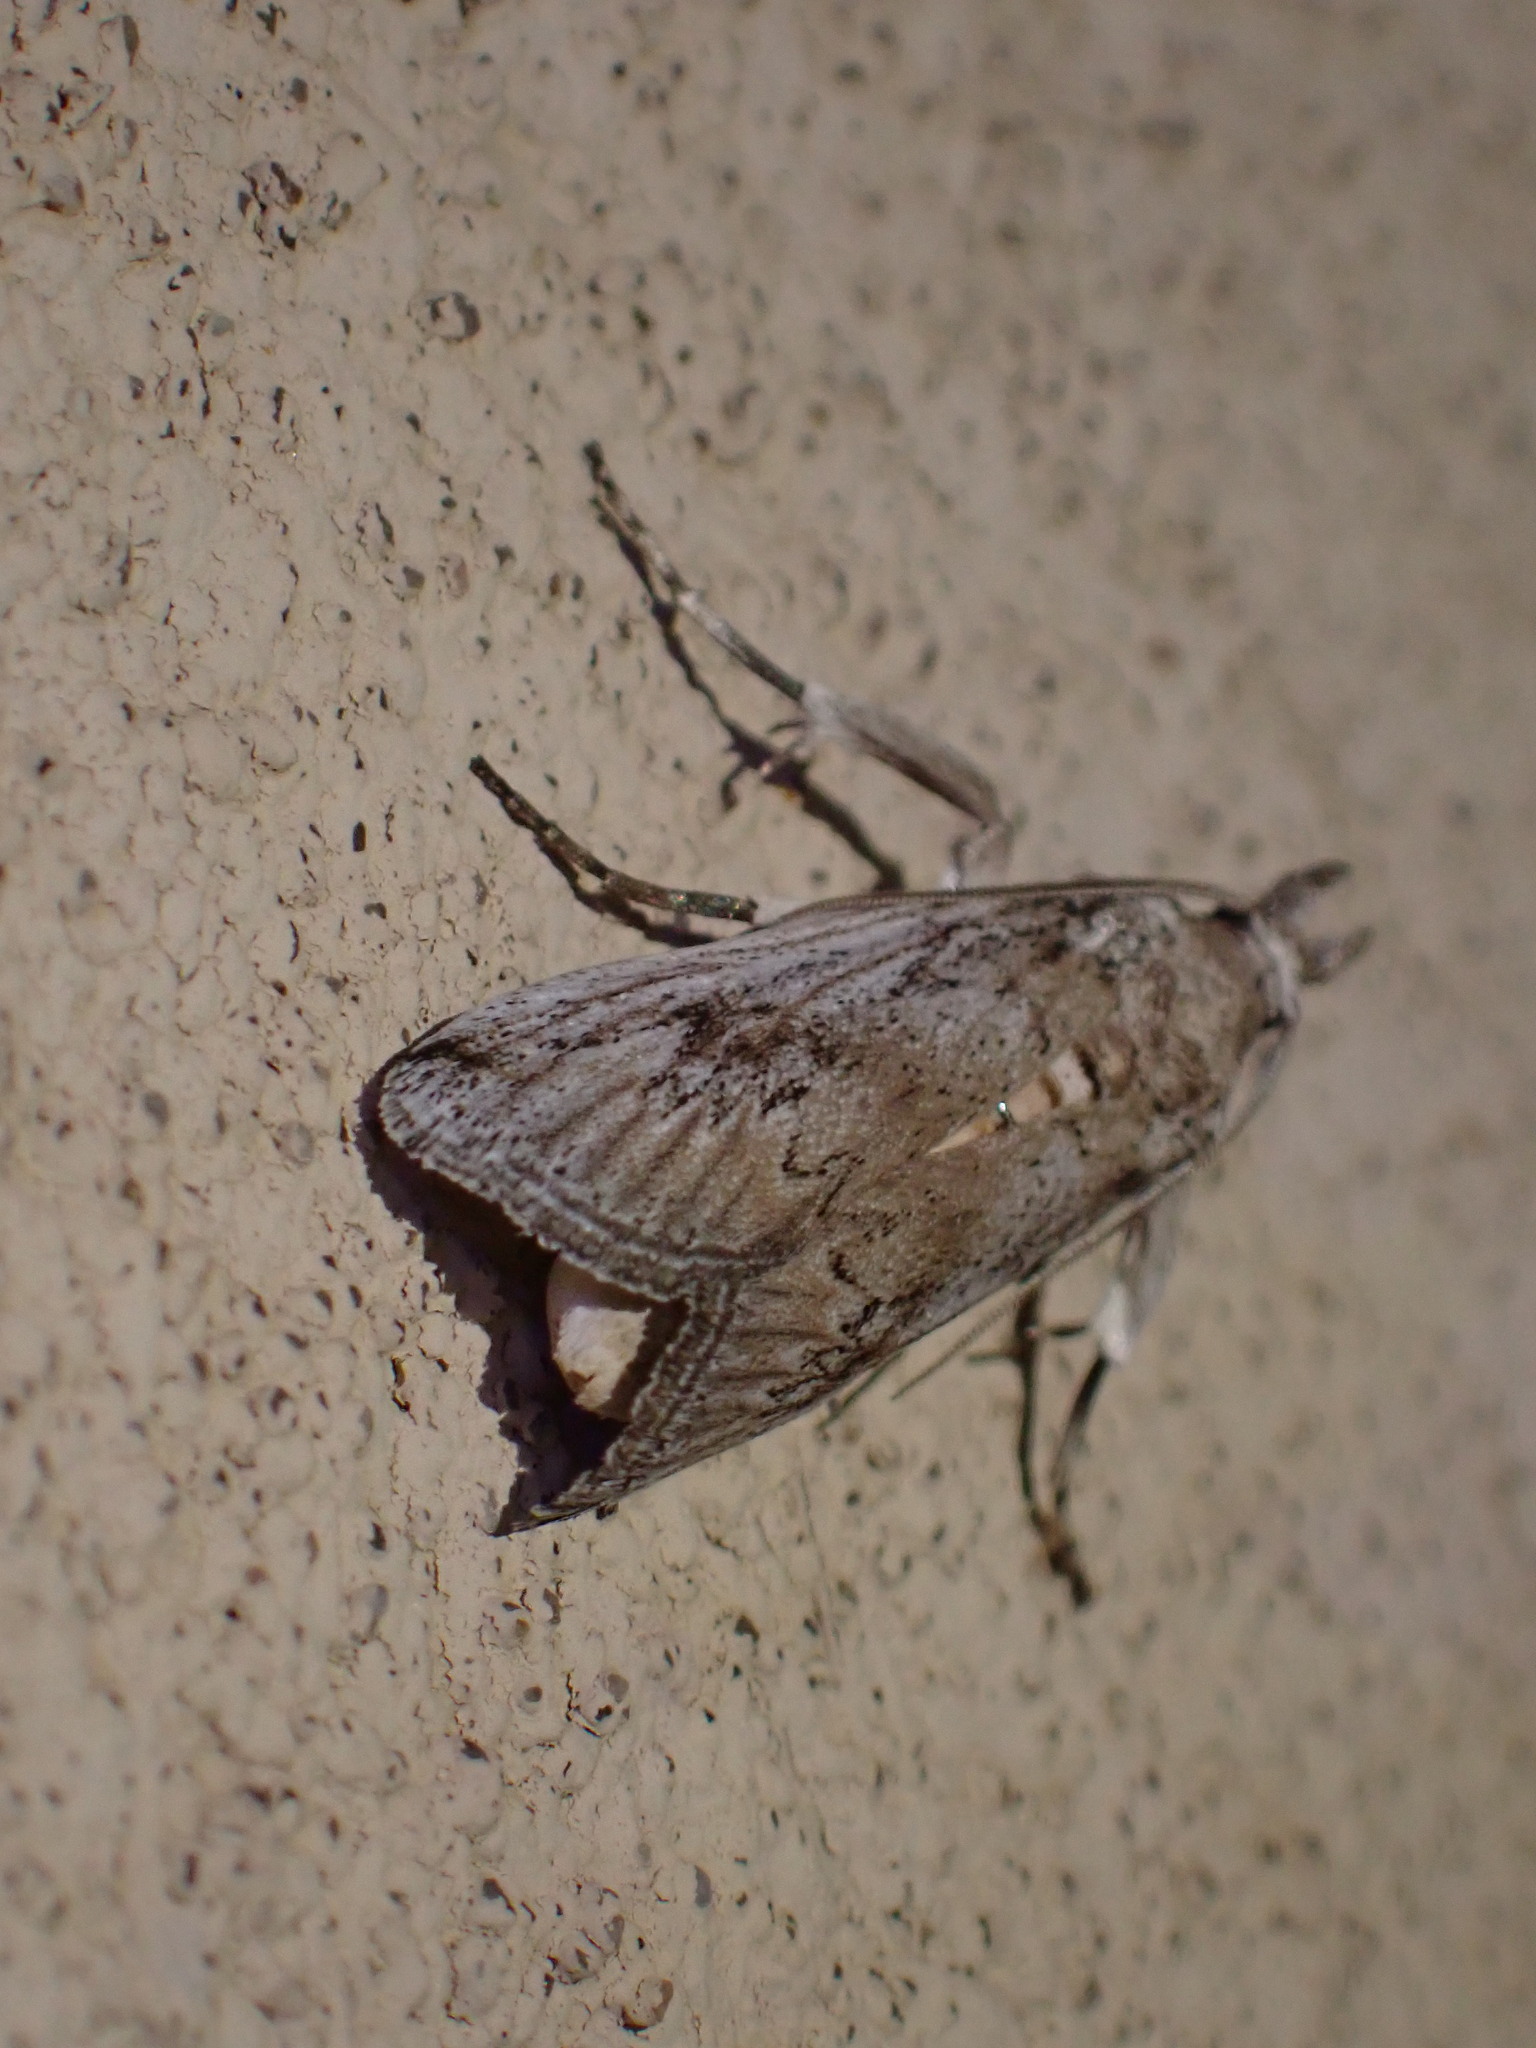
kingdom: Animalia
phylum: Arthropoda
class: Insecta
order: Lepidoptera
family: Pyralidae
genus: Melitara
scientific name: Melitara dentata
